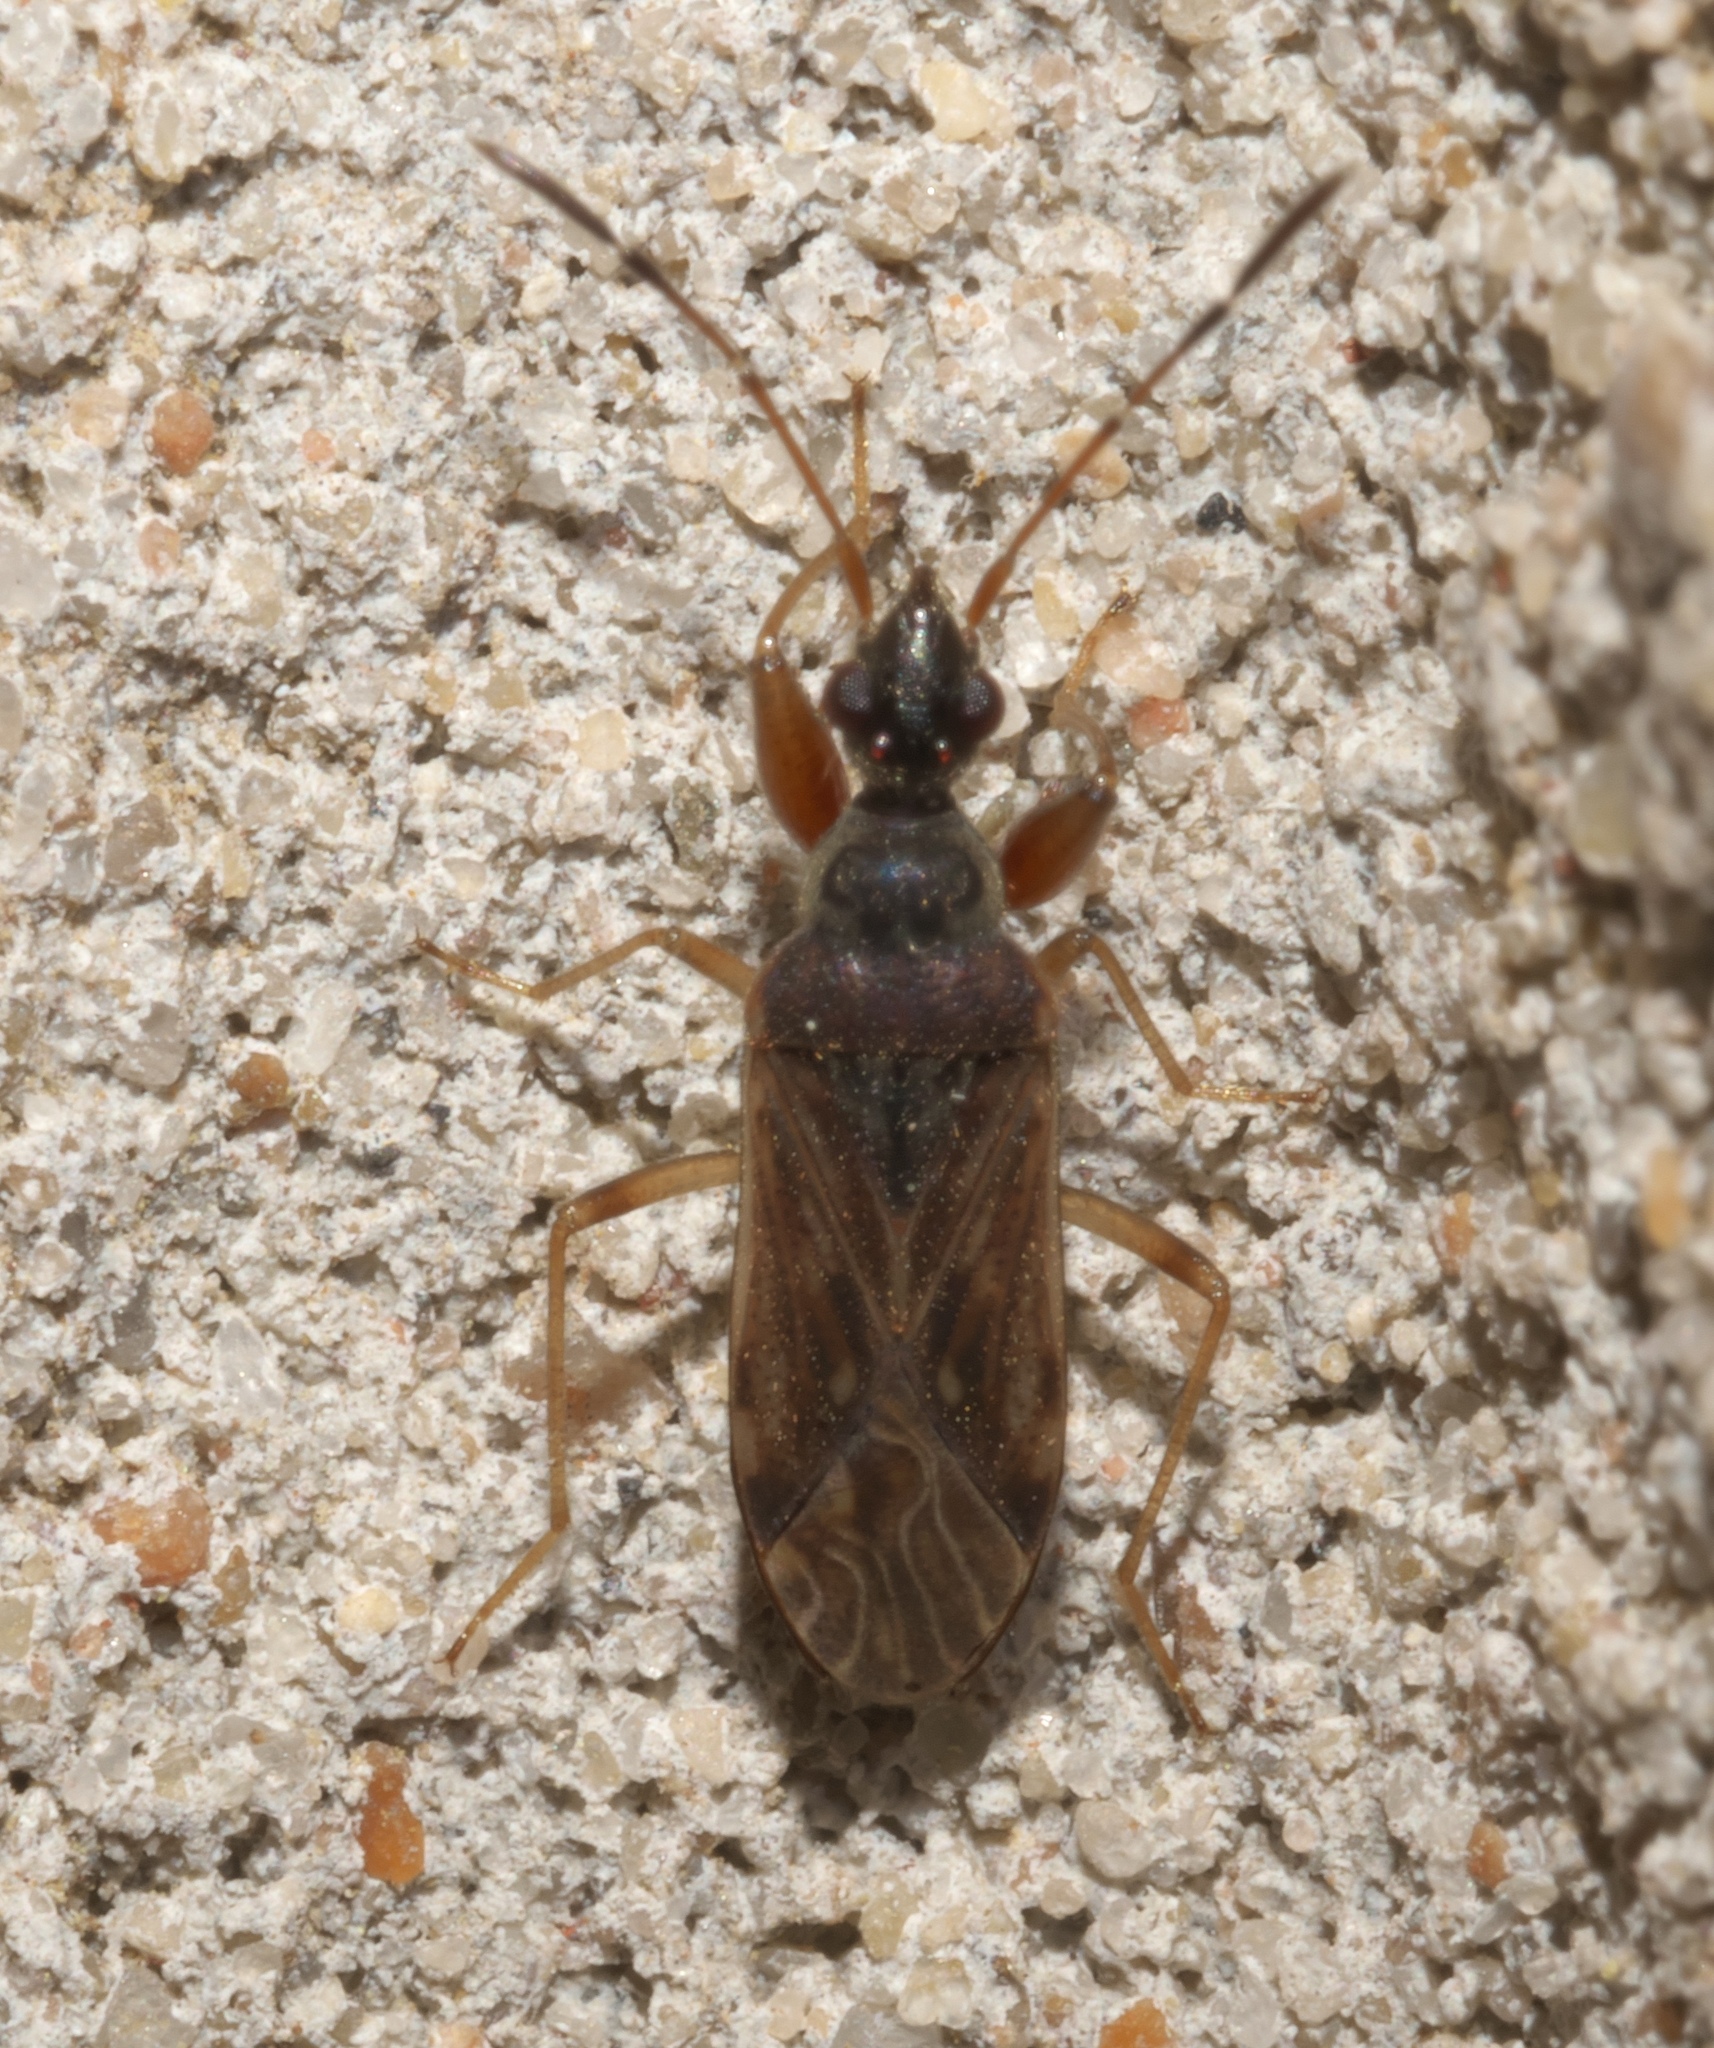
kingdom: Animalia
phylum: Arthropoda
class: Insecta
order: Hemiptera
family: Rhyparochromidae
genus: Heraeus
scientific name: Heraeus plebejus
